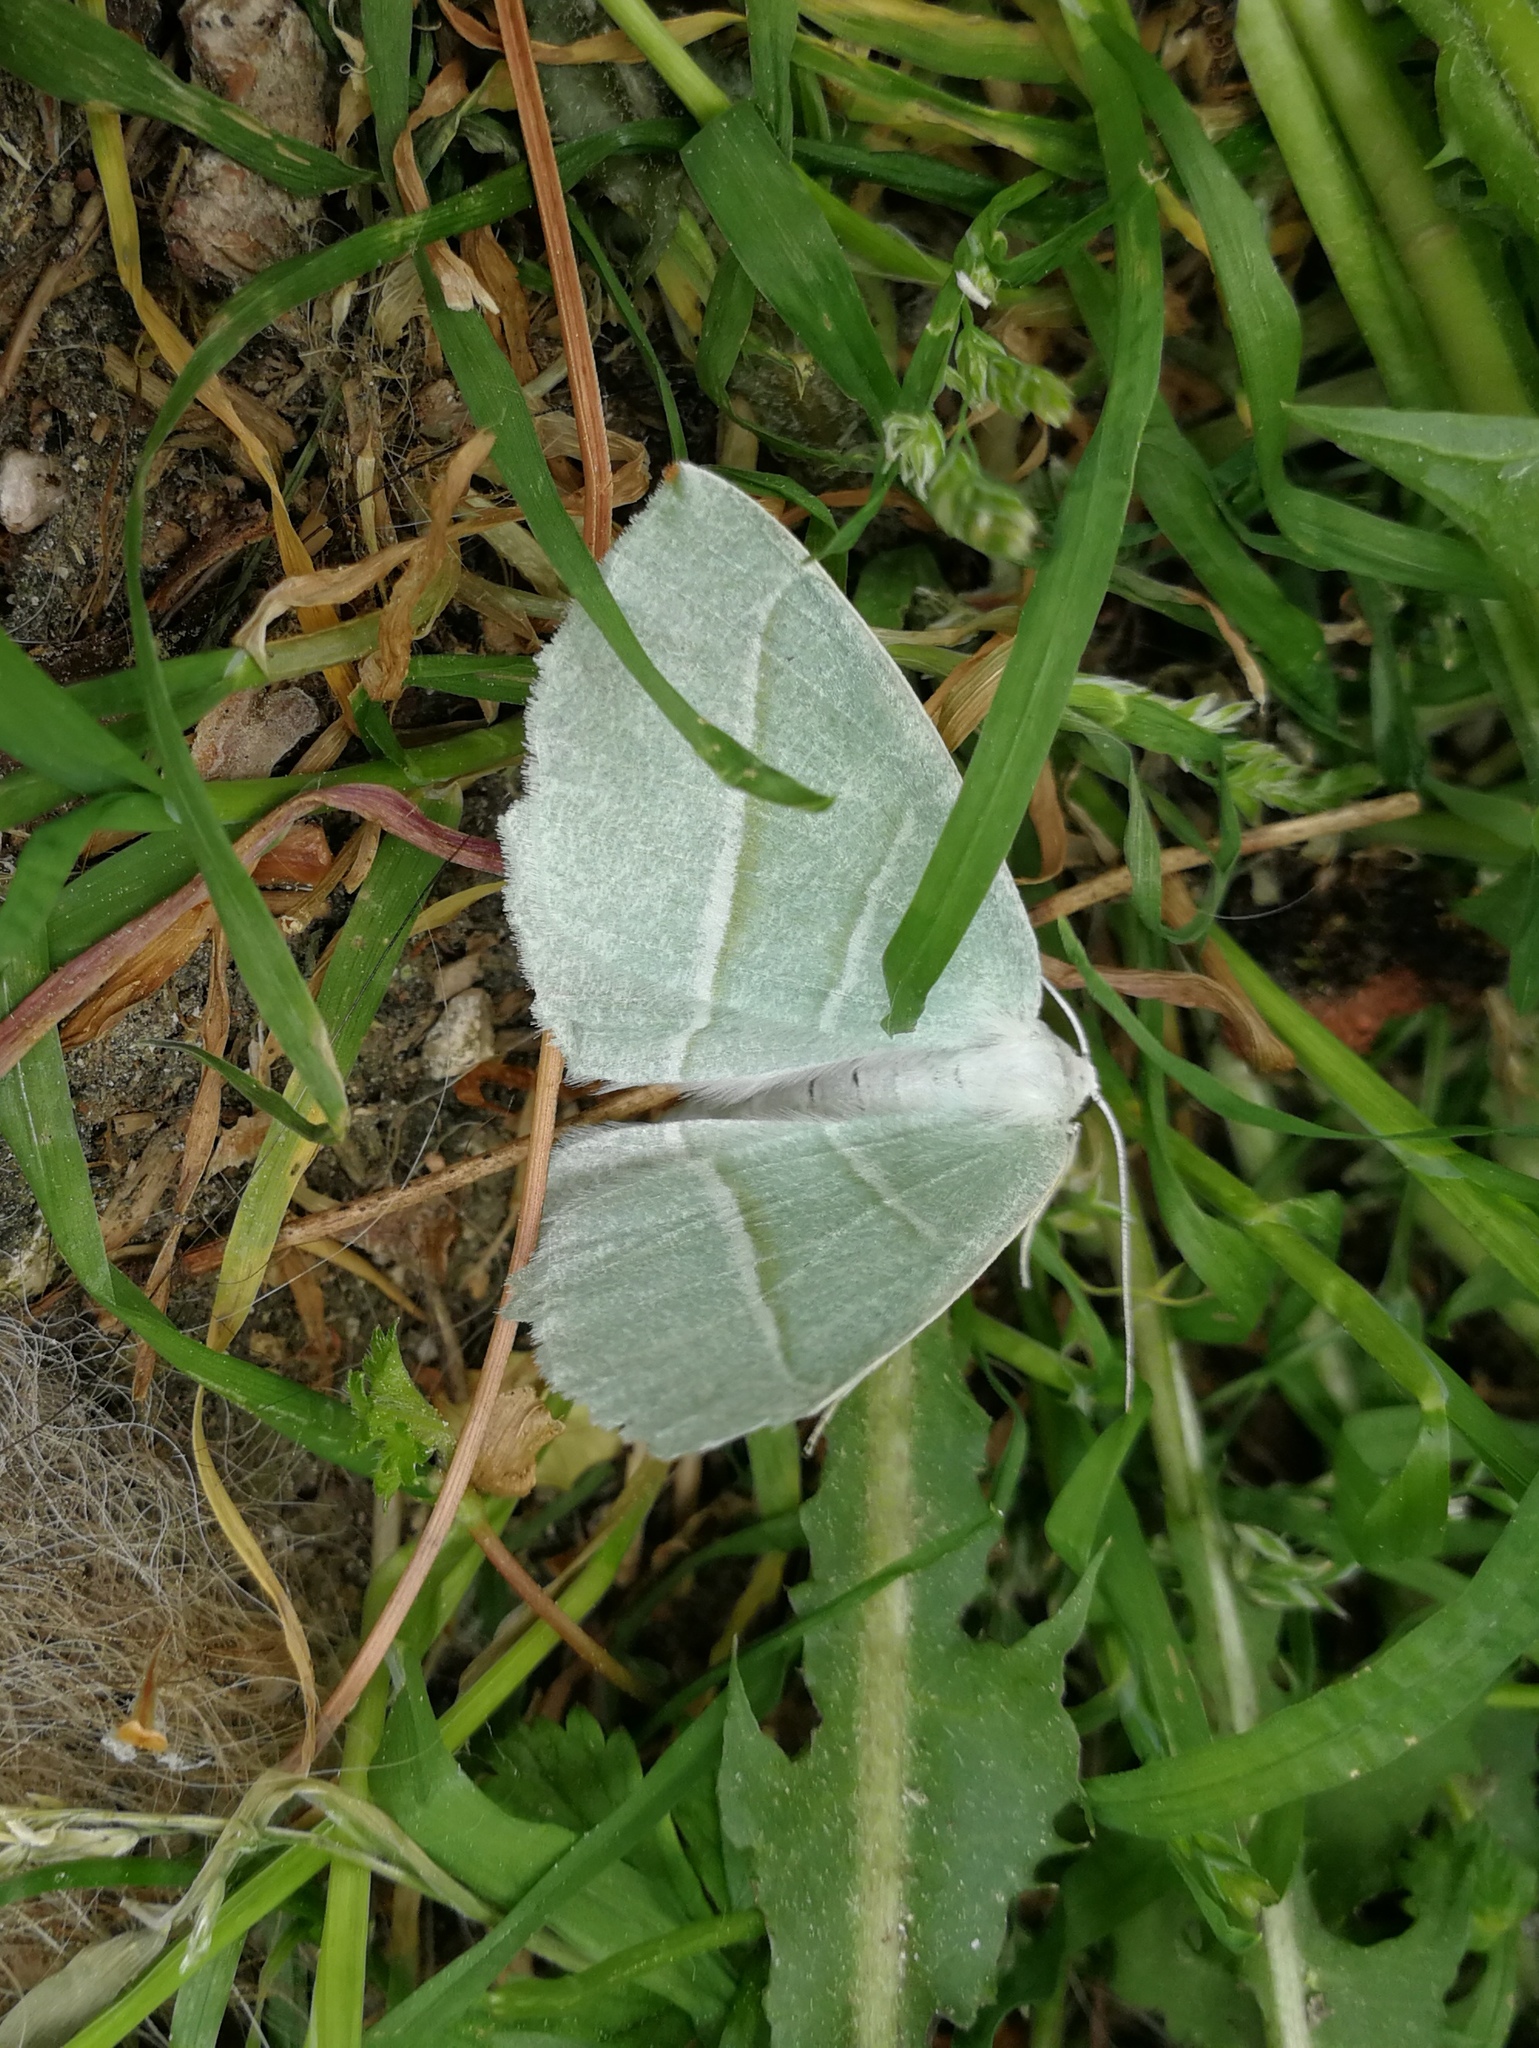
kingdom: Animalia
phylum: Arthropoda
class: Insecta
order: Lepidoptera
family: Geometridae
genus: Campaea
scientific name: Campaea margaritaria
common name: Light emerald
